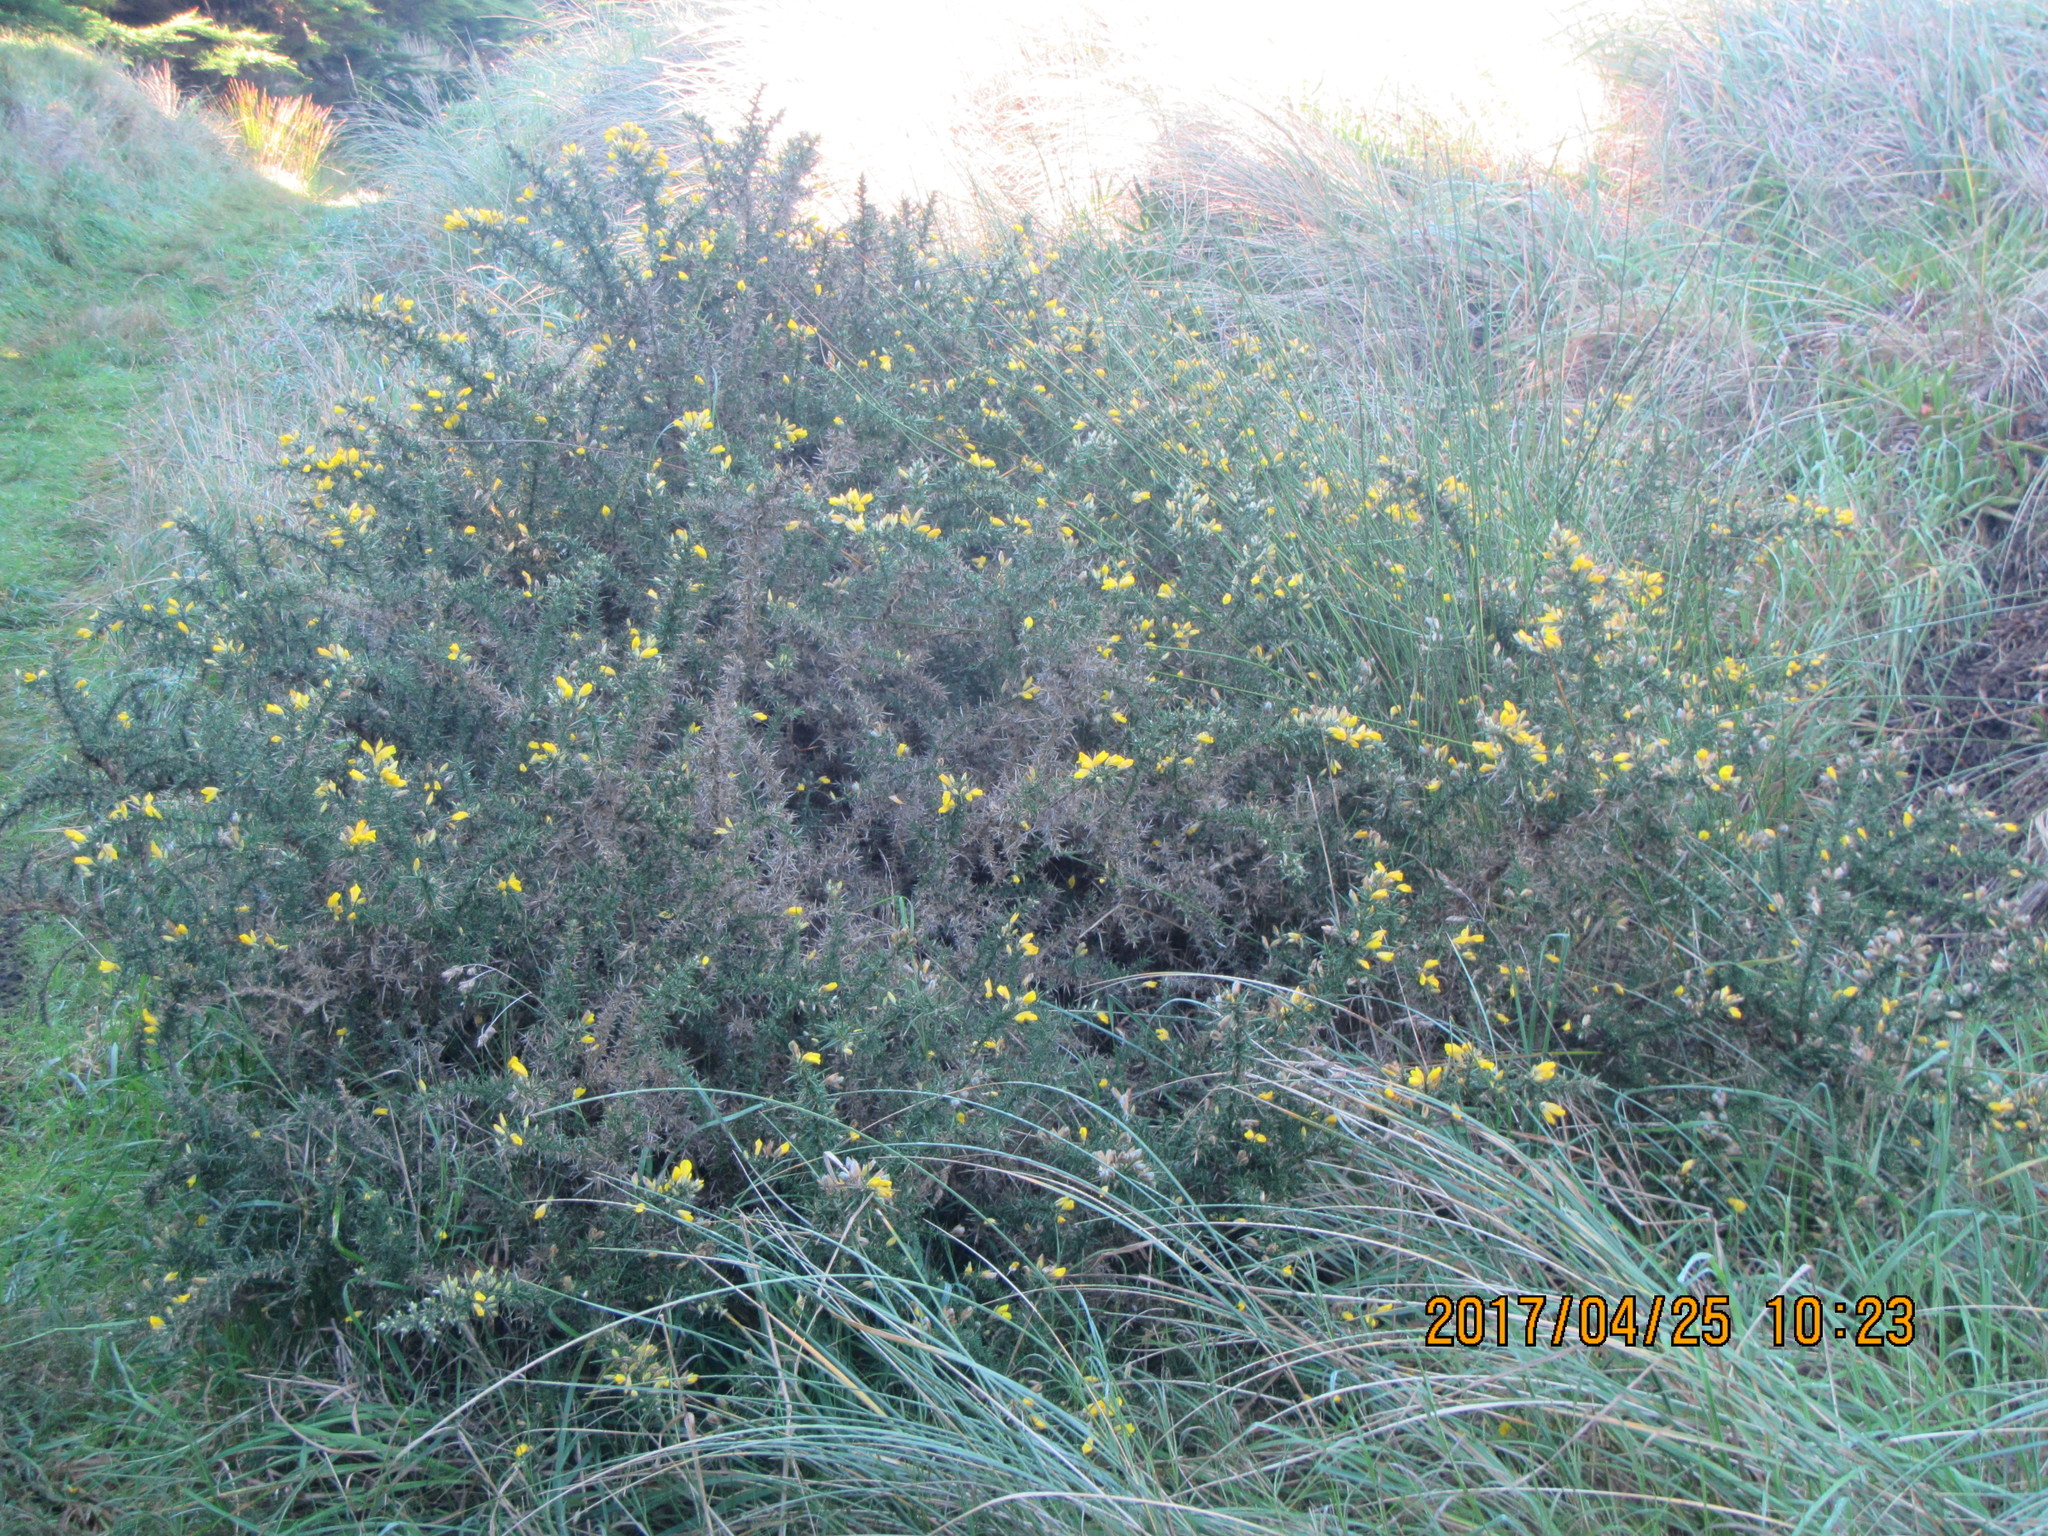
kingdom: Plantae
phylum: Tracheophyta
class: Magnoliopsida
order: Fabales
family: Fabaceae
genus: Ulex
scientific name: Ulex europaeus
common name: Common gorse
